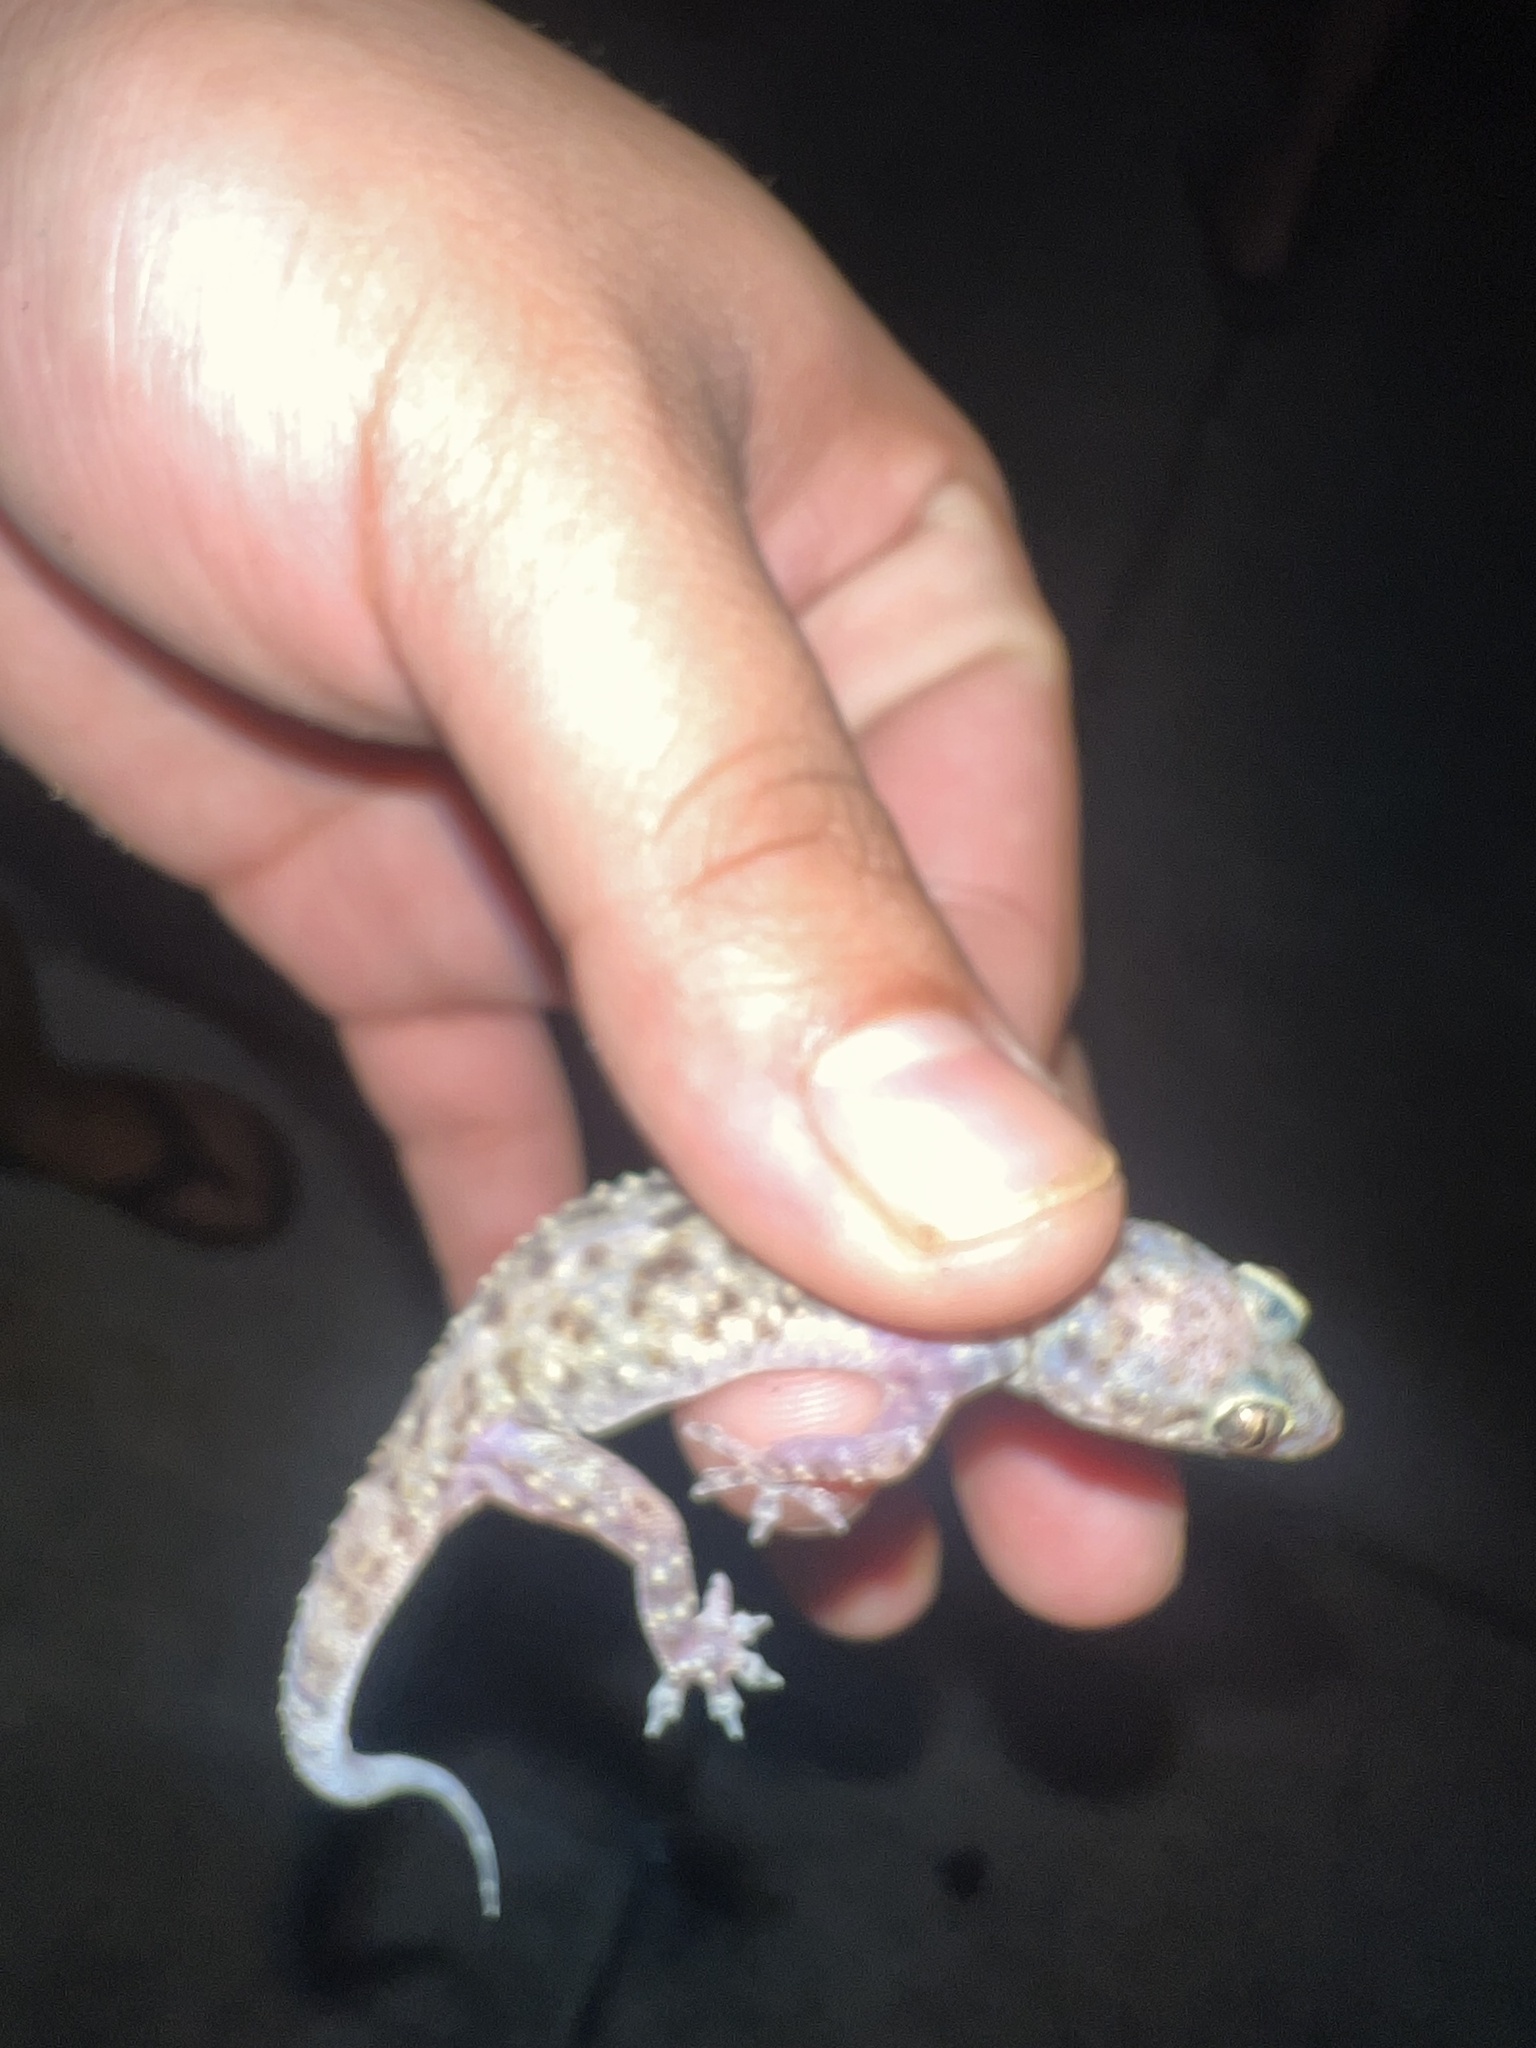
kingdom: Animalia
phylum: Chordata
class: Squamata
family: Gekkonidae
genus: Hemidactylus
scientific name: Hemidactylus turcicus
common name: Turkish gecko
